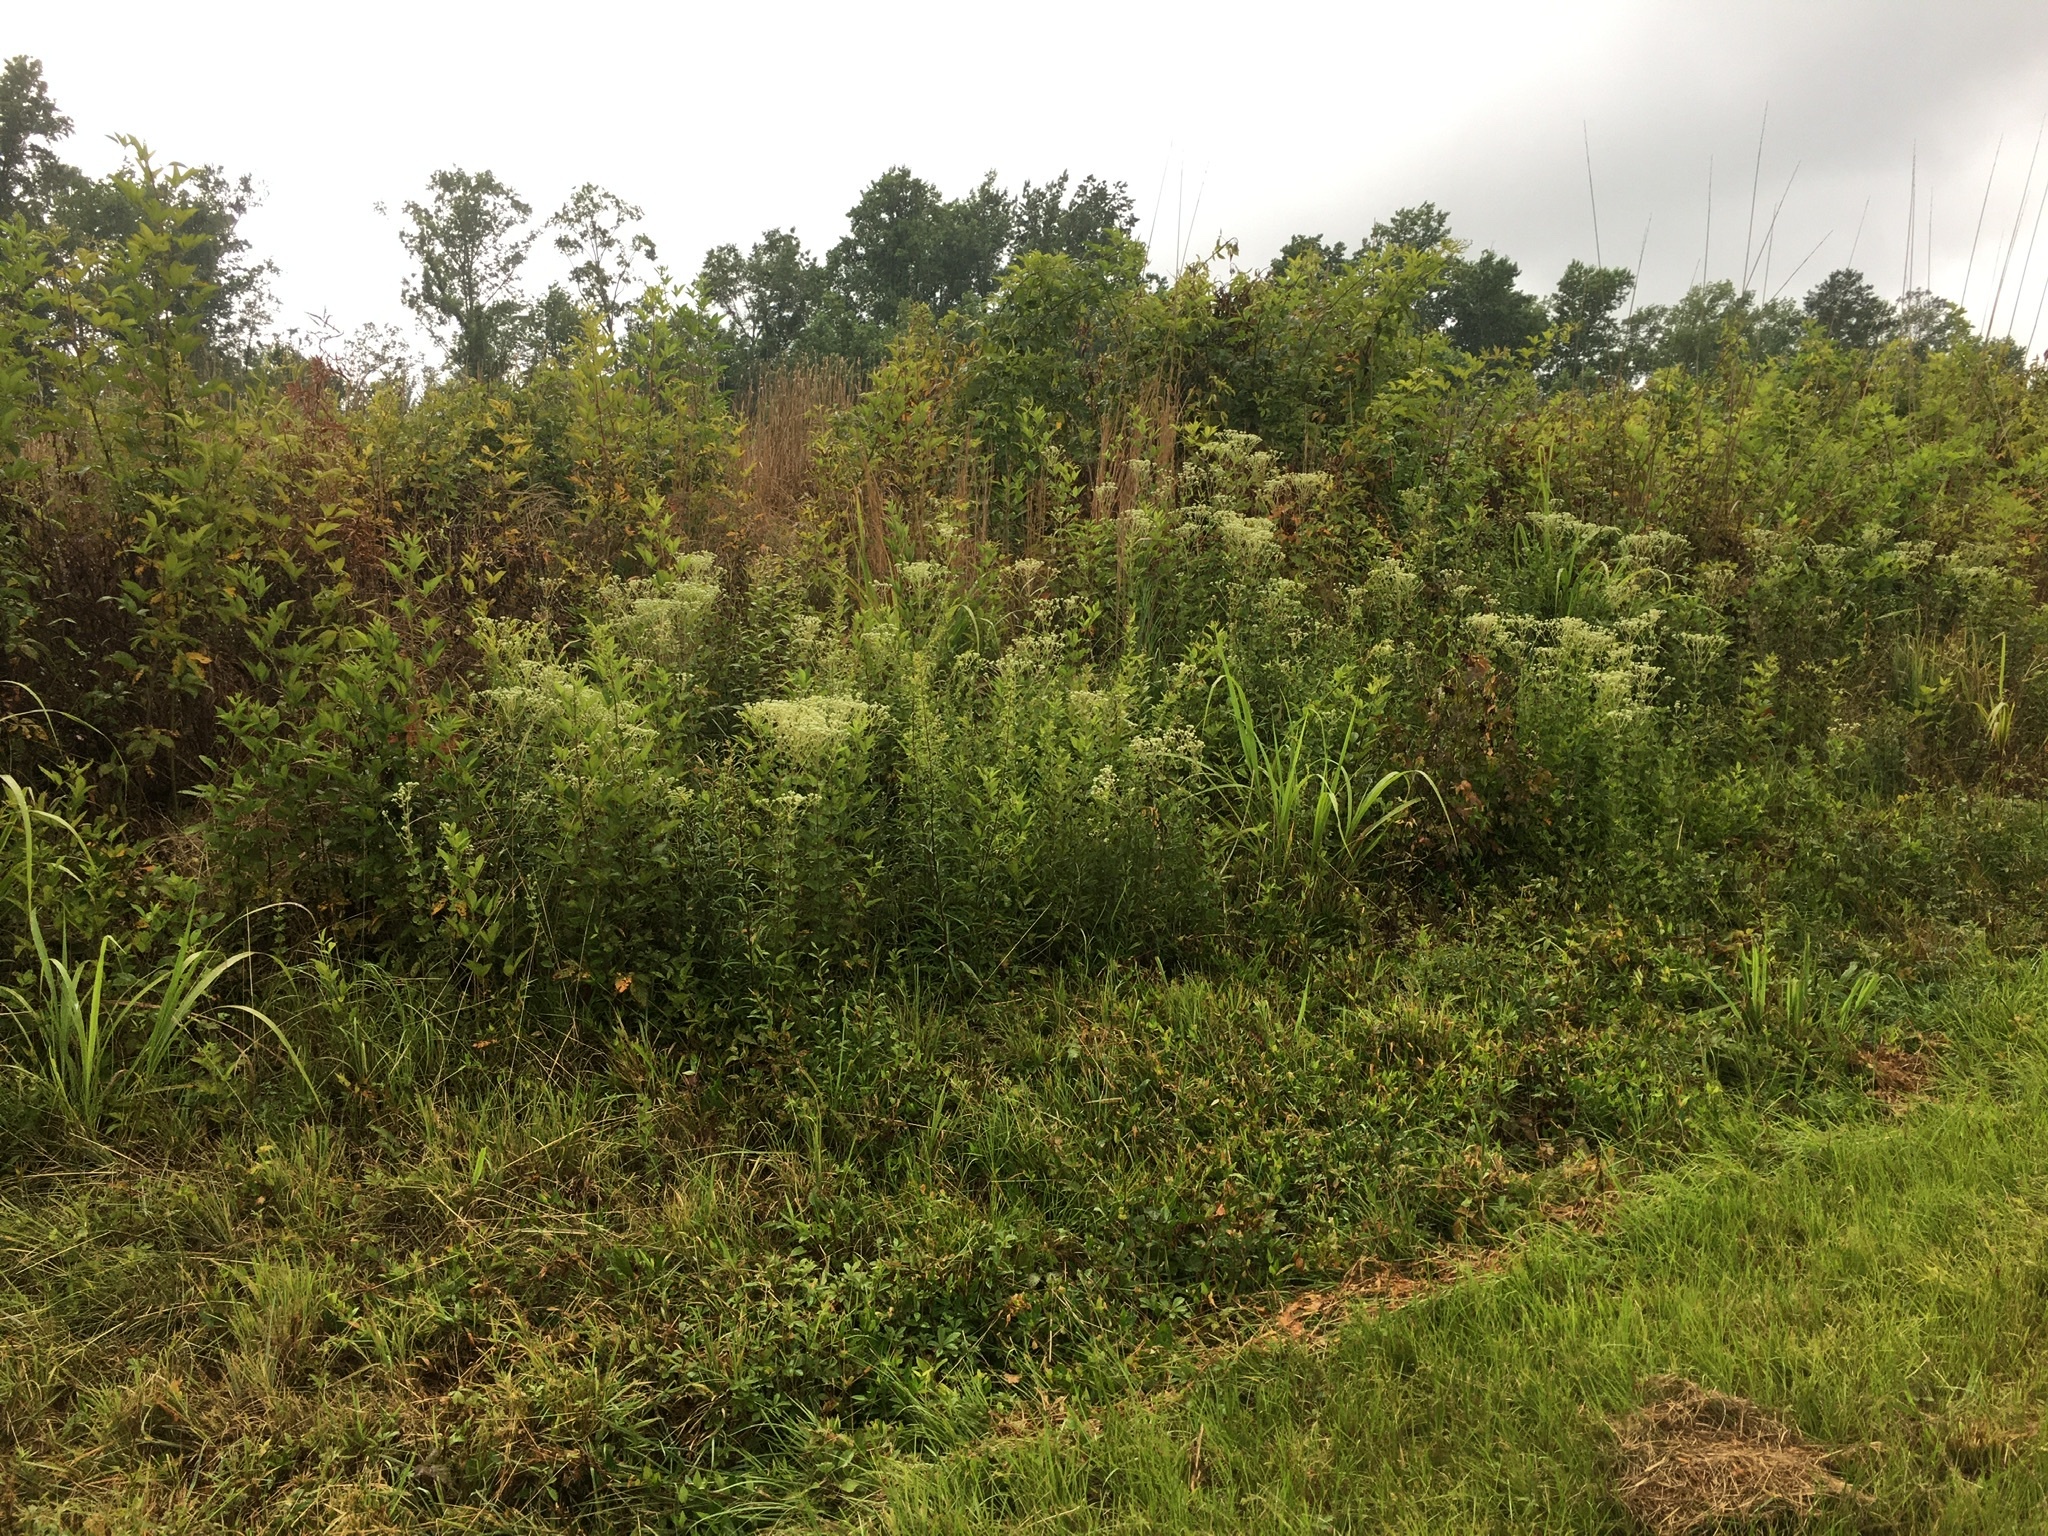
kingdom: Plantae
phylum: Tracheophyta
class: Magnoliopsida
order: Asterales
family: Asteraceae
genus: Eupatorium
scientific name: Eupatorium rotundifolium
